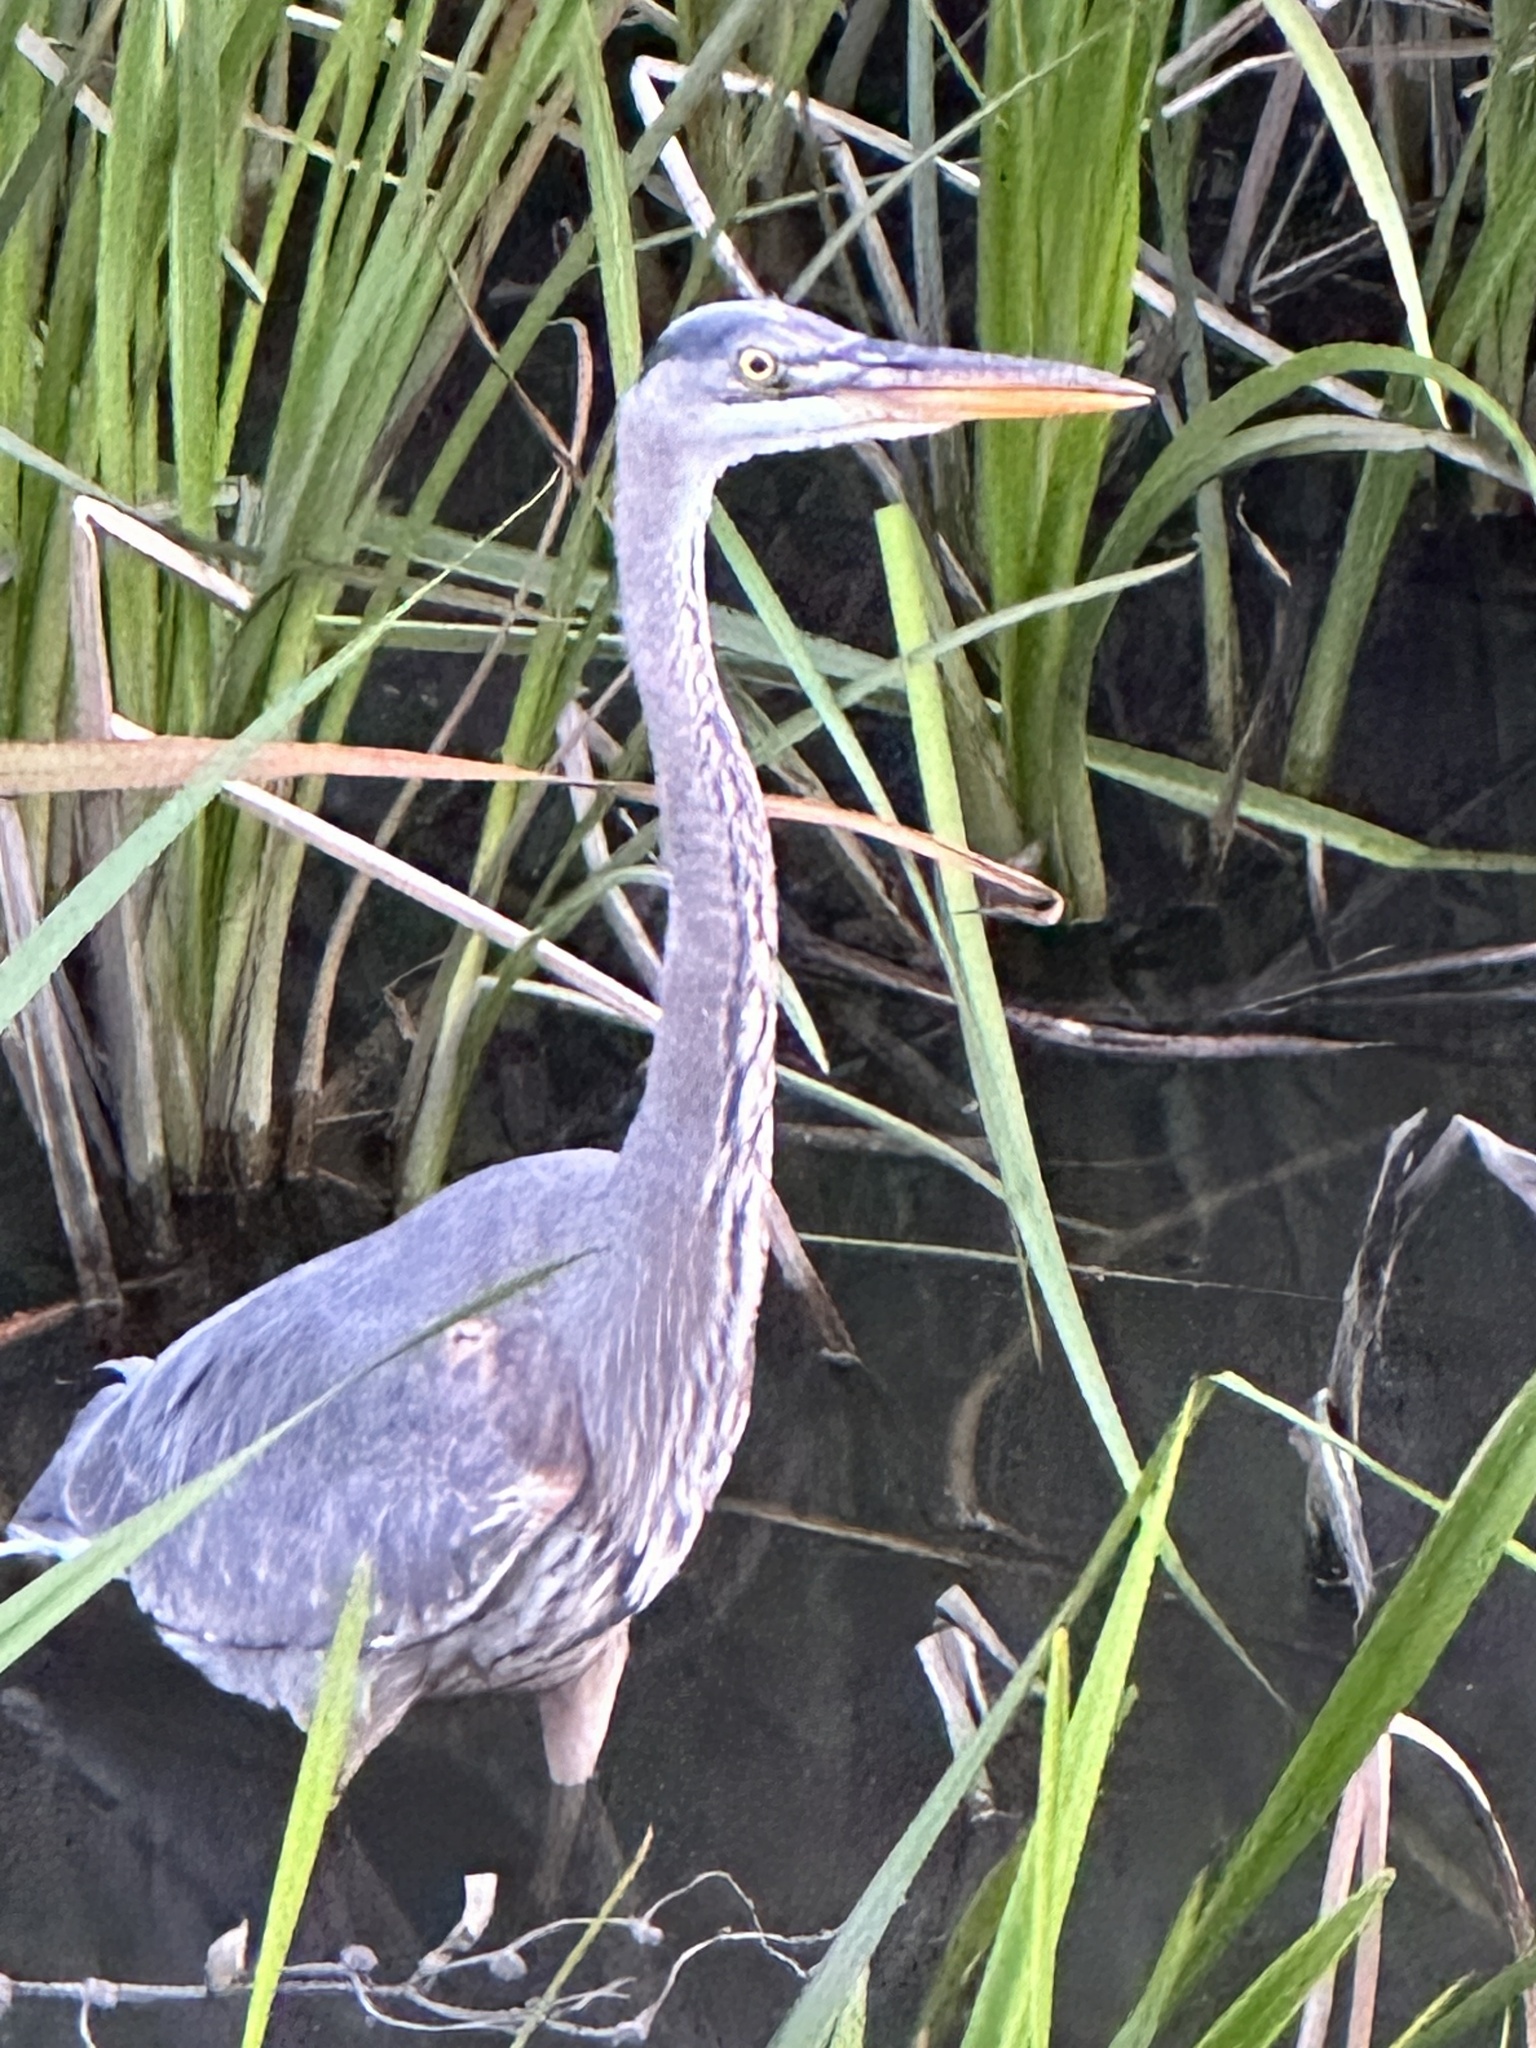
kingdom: Animalia
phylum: Chordata
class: Aves
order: Pelecaniformes
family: Ardeidae
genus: Ardea
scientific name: Ardea herodias
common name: Great blue heron
